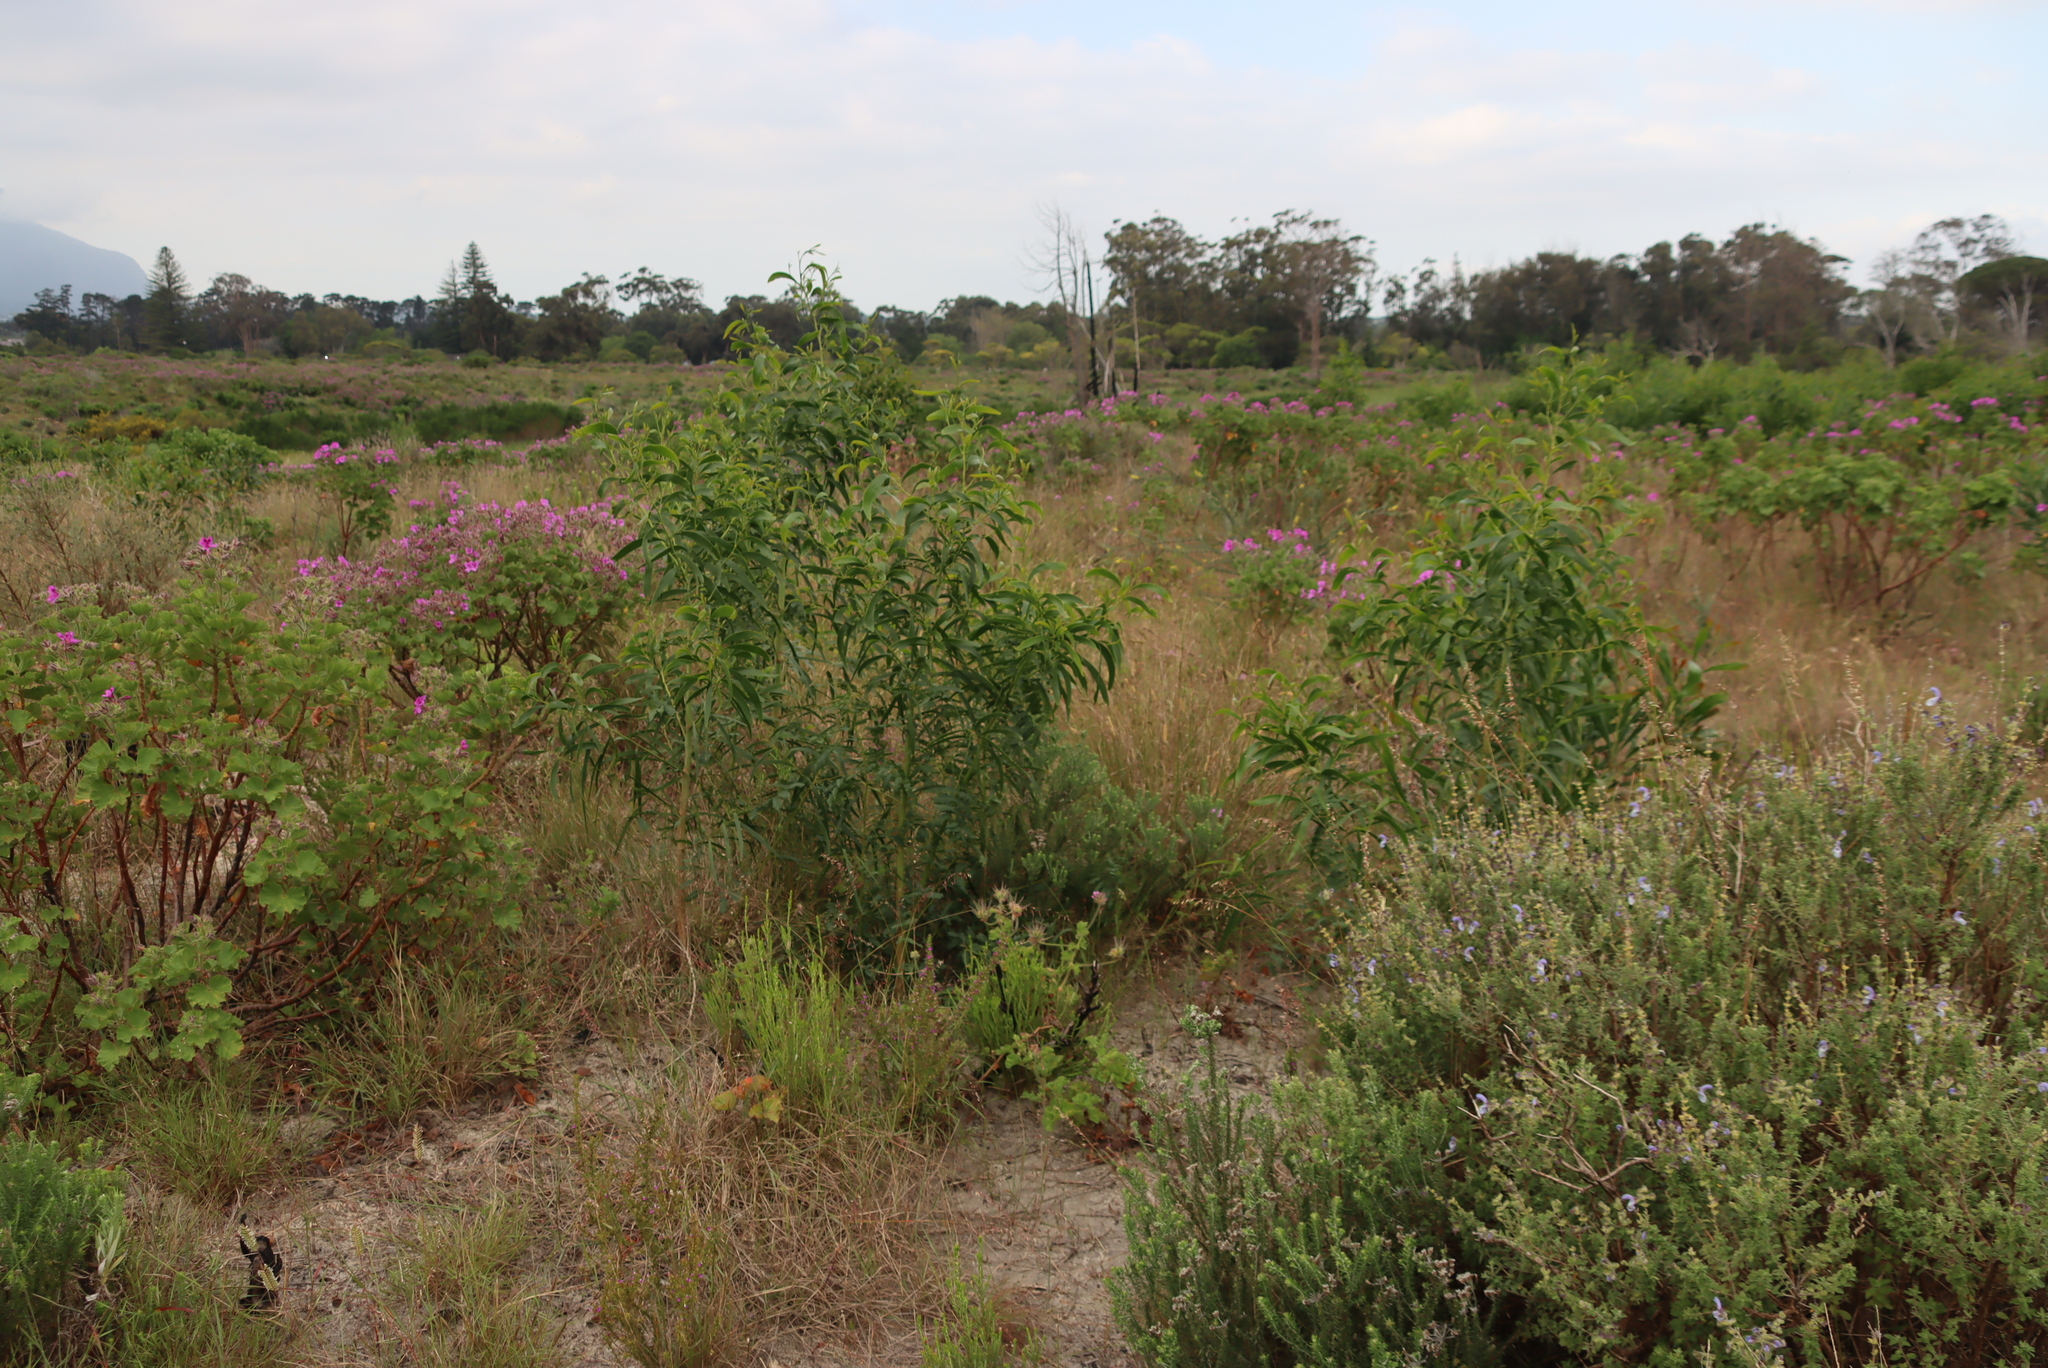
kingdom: Plantae
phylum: Tracheophyta
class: Magnoliopsida
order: Fabales
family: Fabaceae
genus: Acacia
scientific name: Acacia implexa
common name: Black wattle
